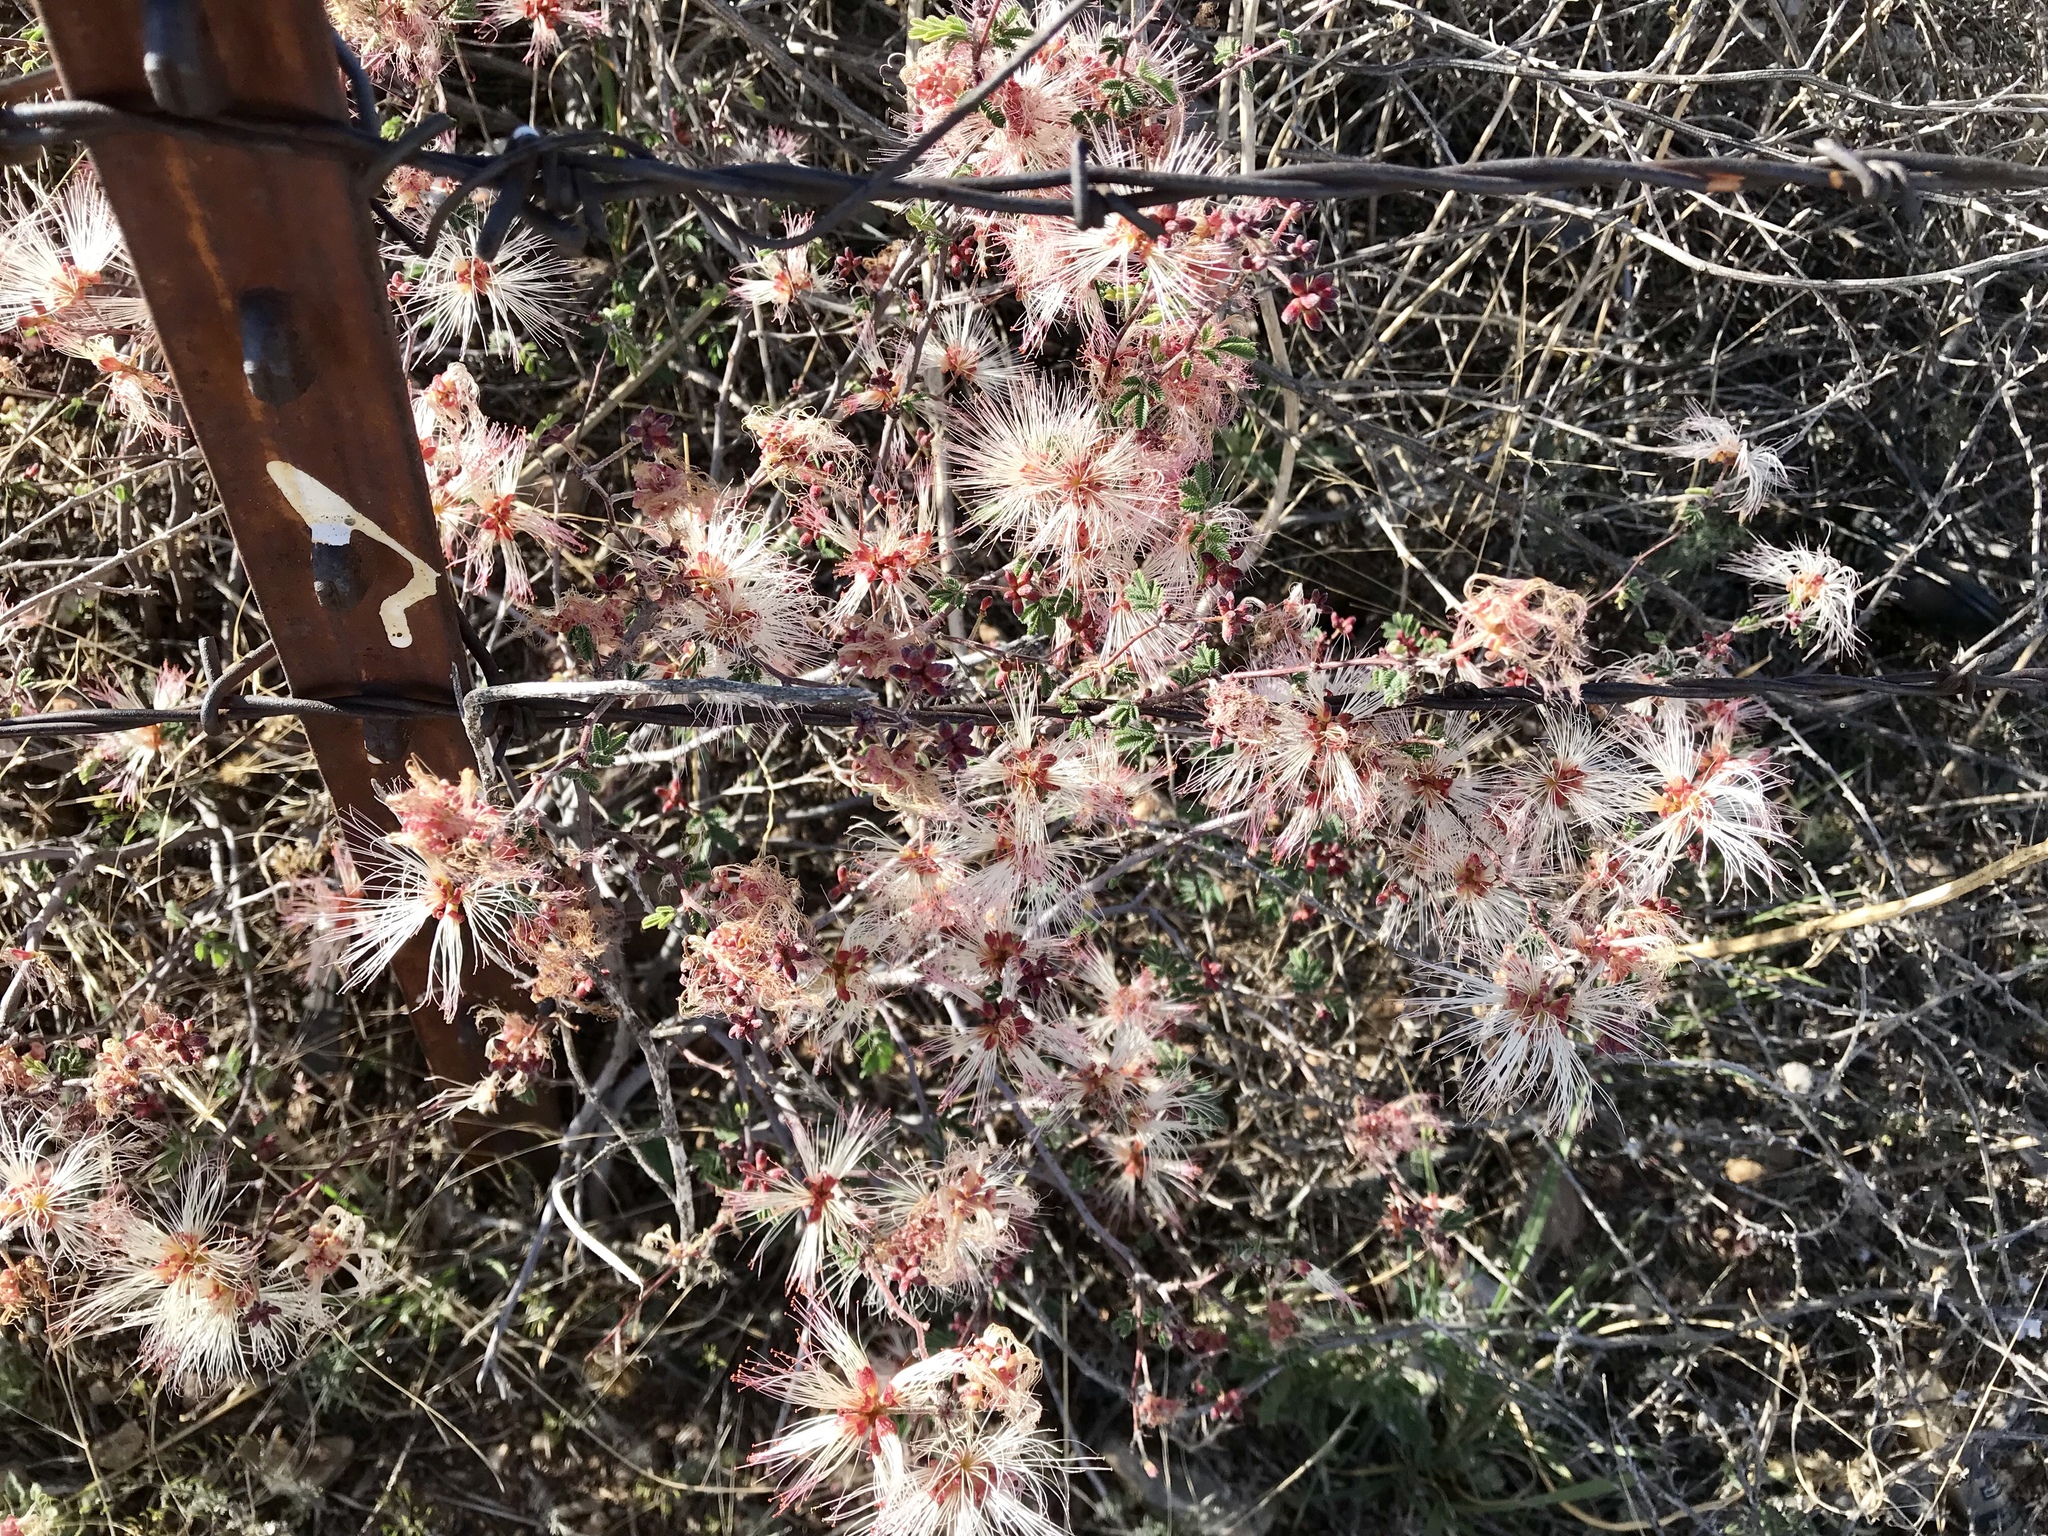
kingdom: Plantae
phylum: Tracheophyta
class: Magnoliopsida
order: Fabales
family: Fabaceae
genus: Calliandra
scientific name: Calliandra eriophylla
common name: Fairy-duster
